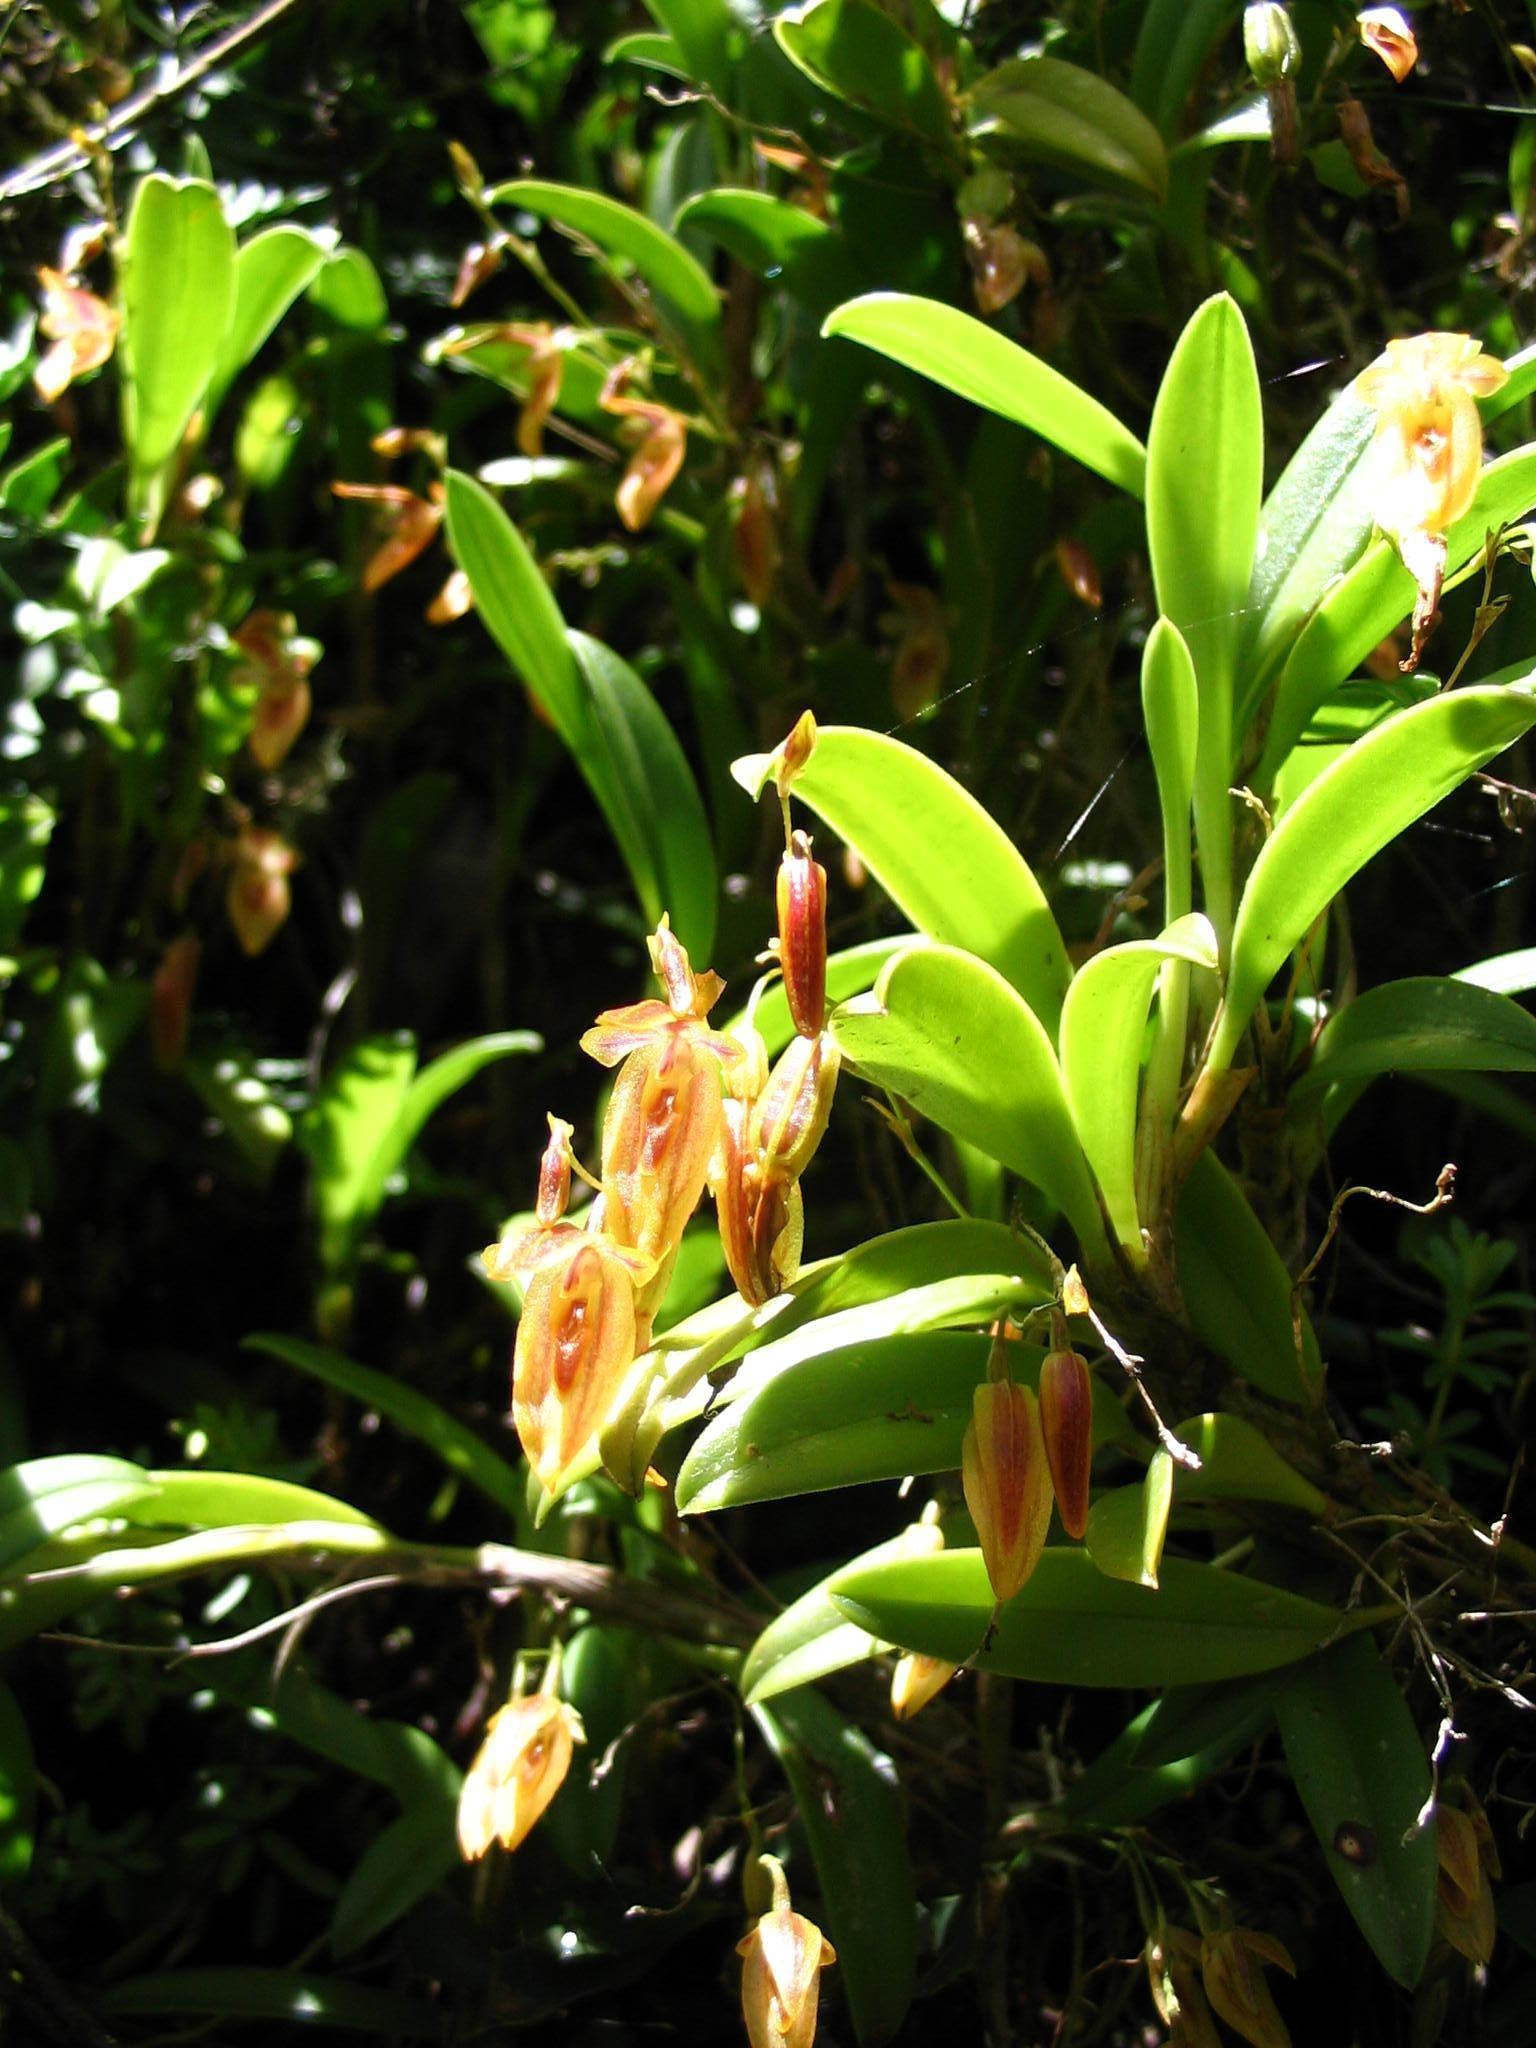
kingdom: Plantae
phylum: Tracheophyta
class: Liliopsida
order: Asparagales
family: Orchidaceae
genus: Andinia
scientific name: Andinia spiralis
